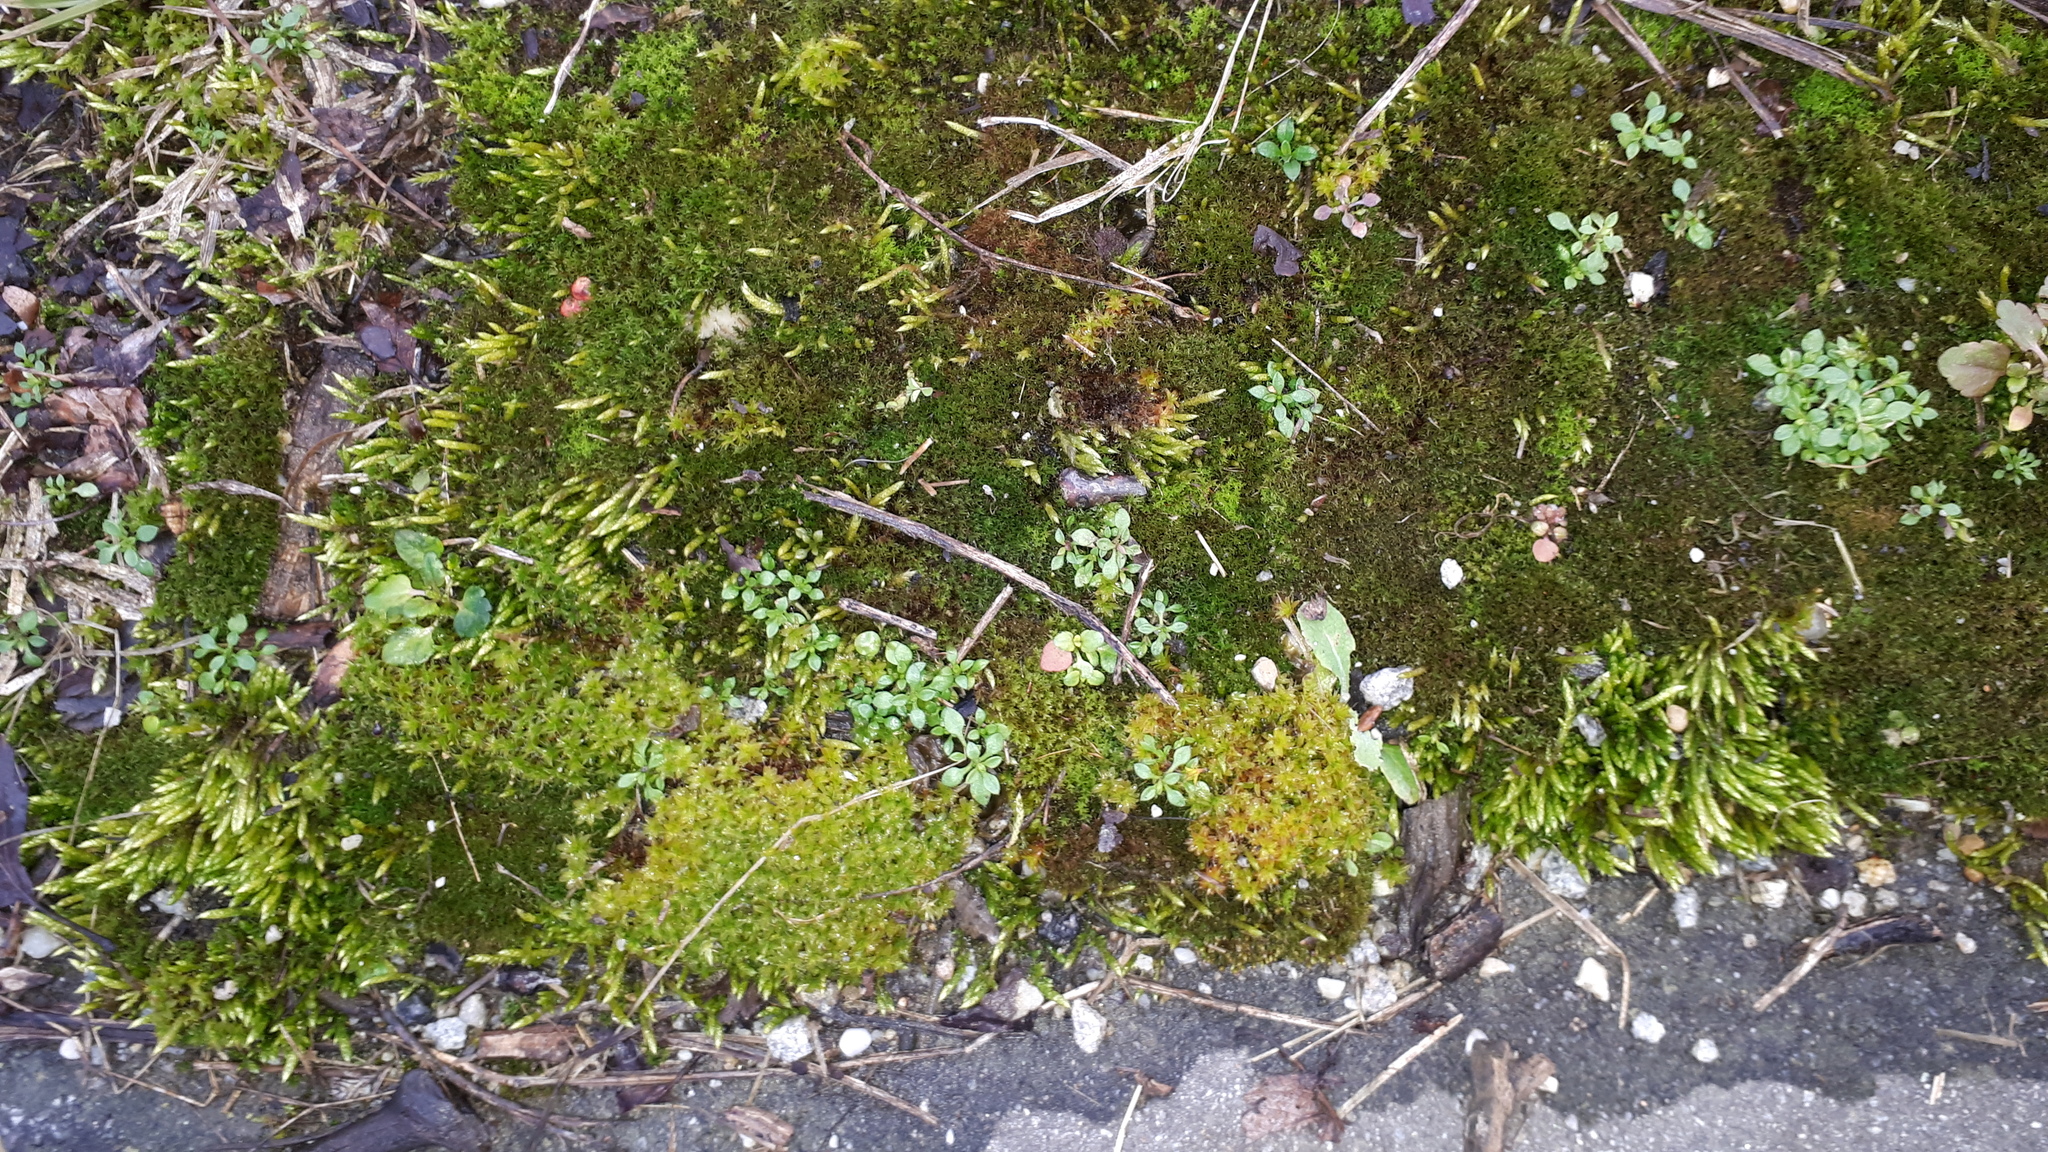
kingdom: Plantae
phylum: Bryophyta
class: Bryopsida
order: Pottiales
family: Pottiaceae
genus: Syntrichia
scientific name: Syntrichia ruralis
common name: Sidewalk screw moss
